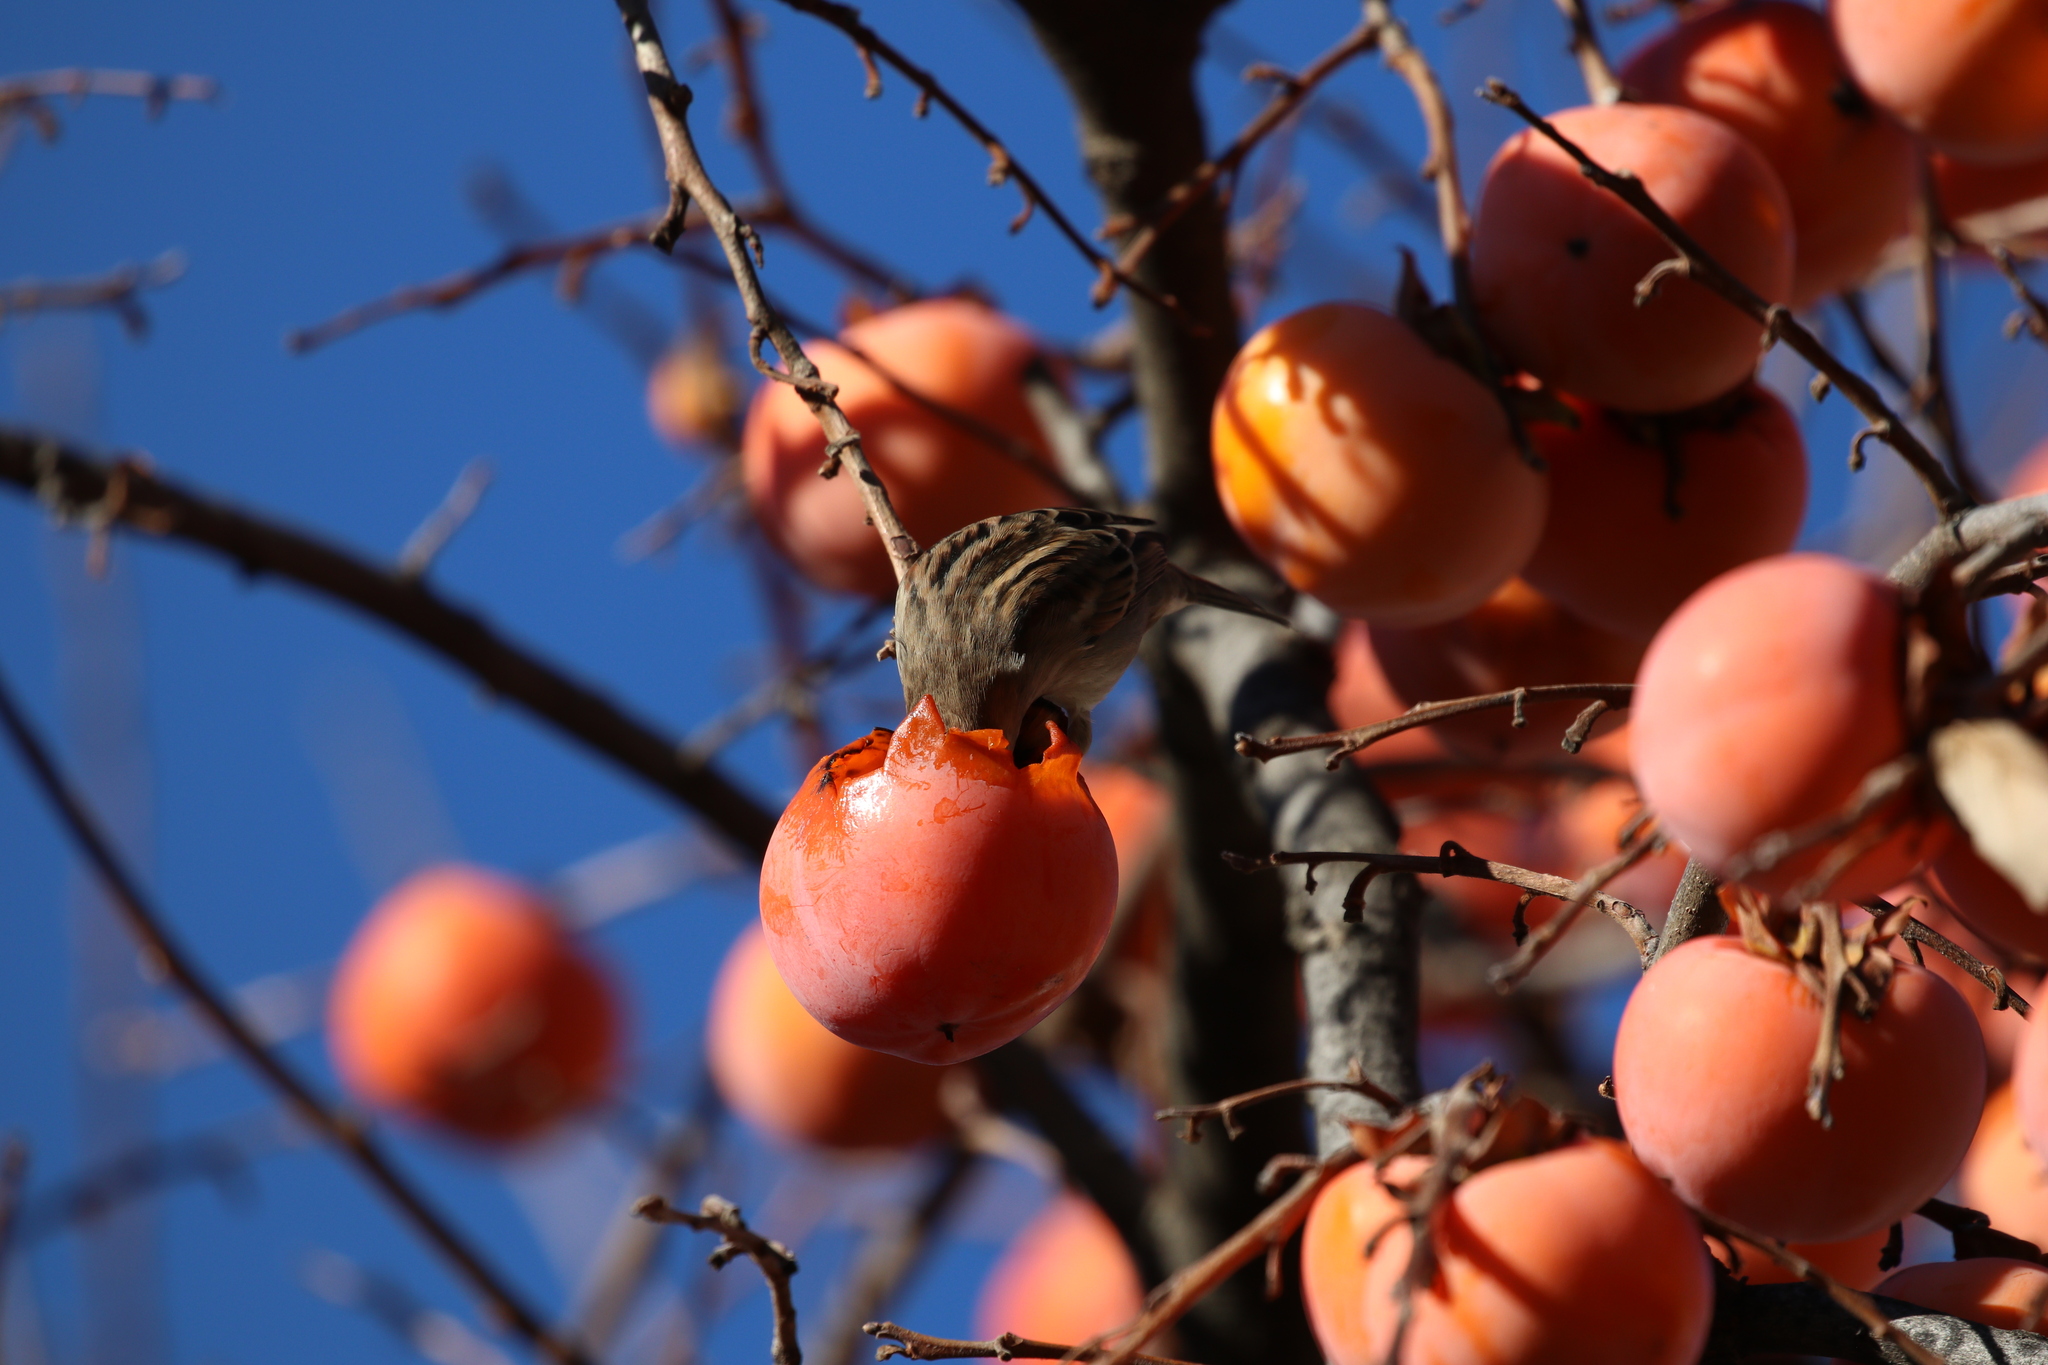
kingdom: Animalia
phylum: Chordata
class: Aves
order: Passeriformes
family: Passeridae
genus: Passer
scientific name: Passer italiae
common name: Italian sparrow
